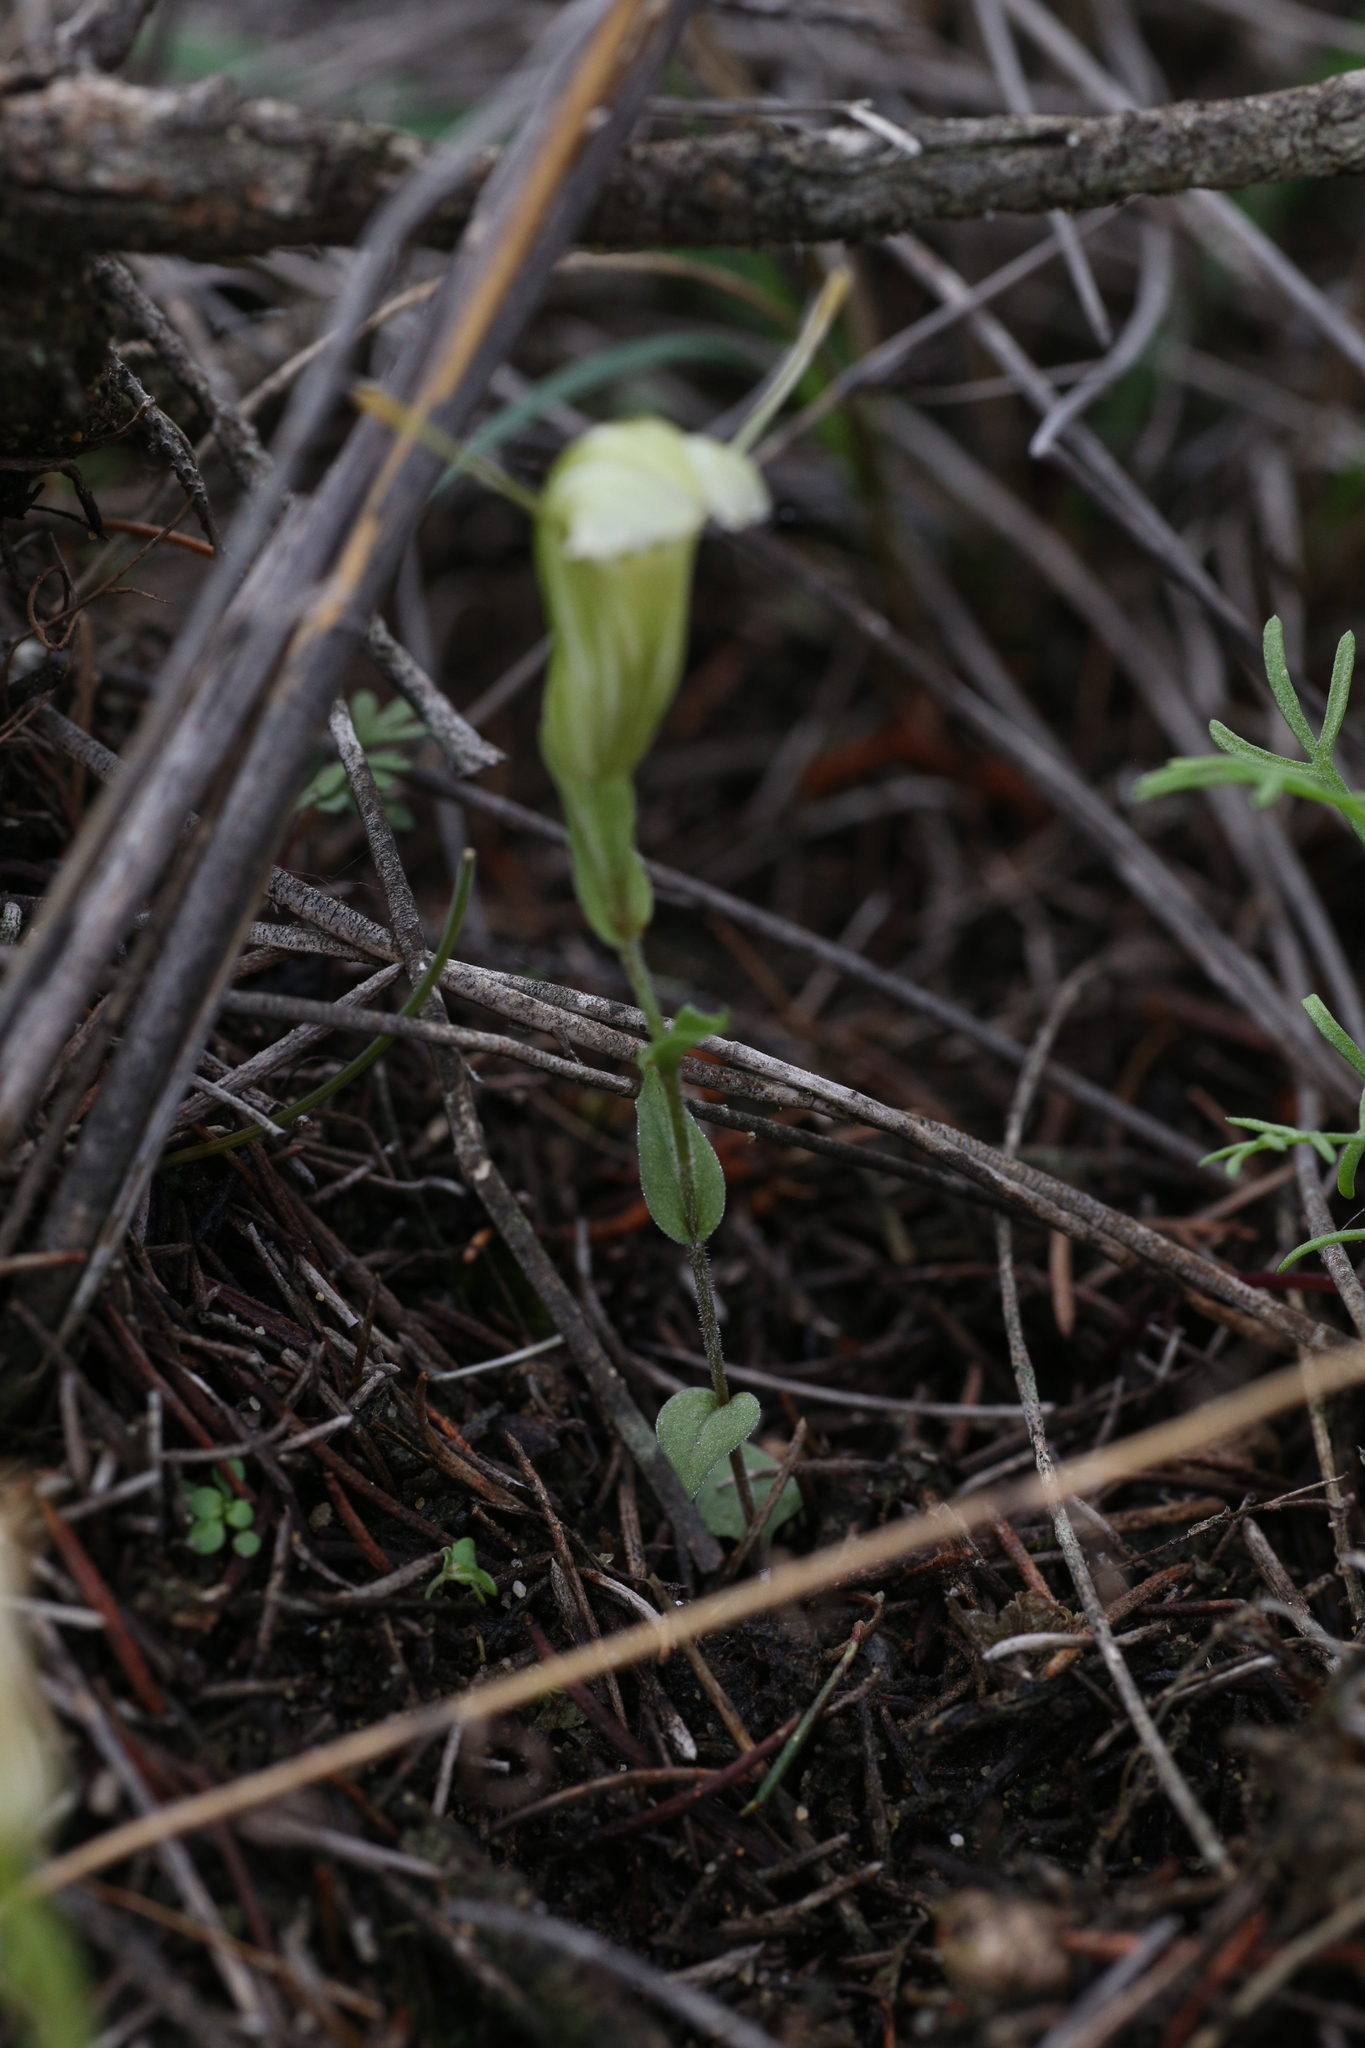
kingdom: Plantae
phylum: Tracheophyta
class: Liliopsida
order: Asparagales
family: Orchidaceae
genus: Pterostylis
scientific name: Pterostylis dilatata
